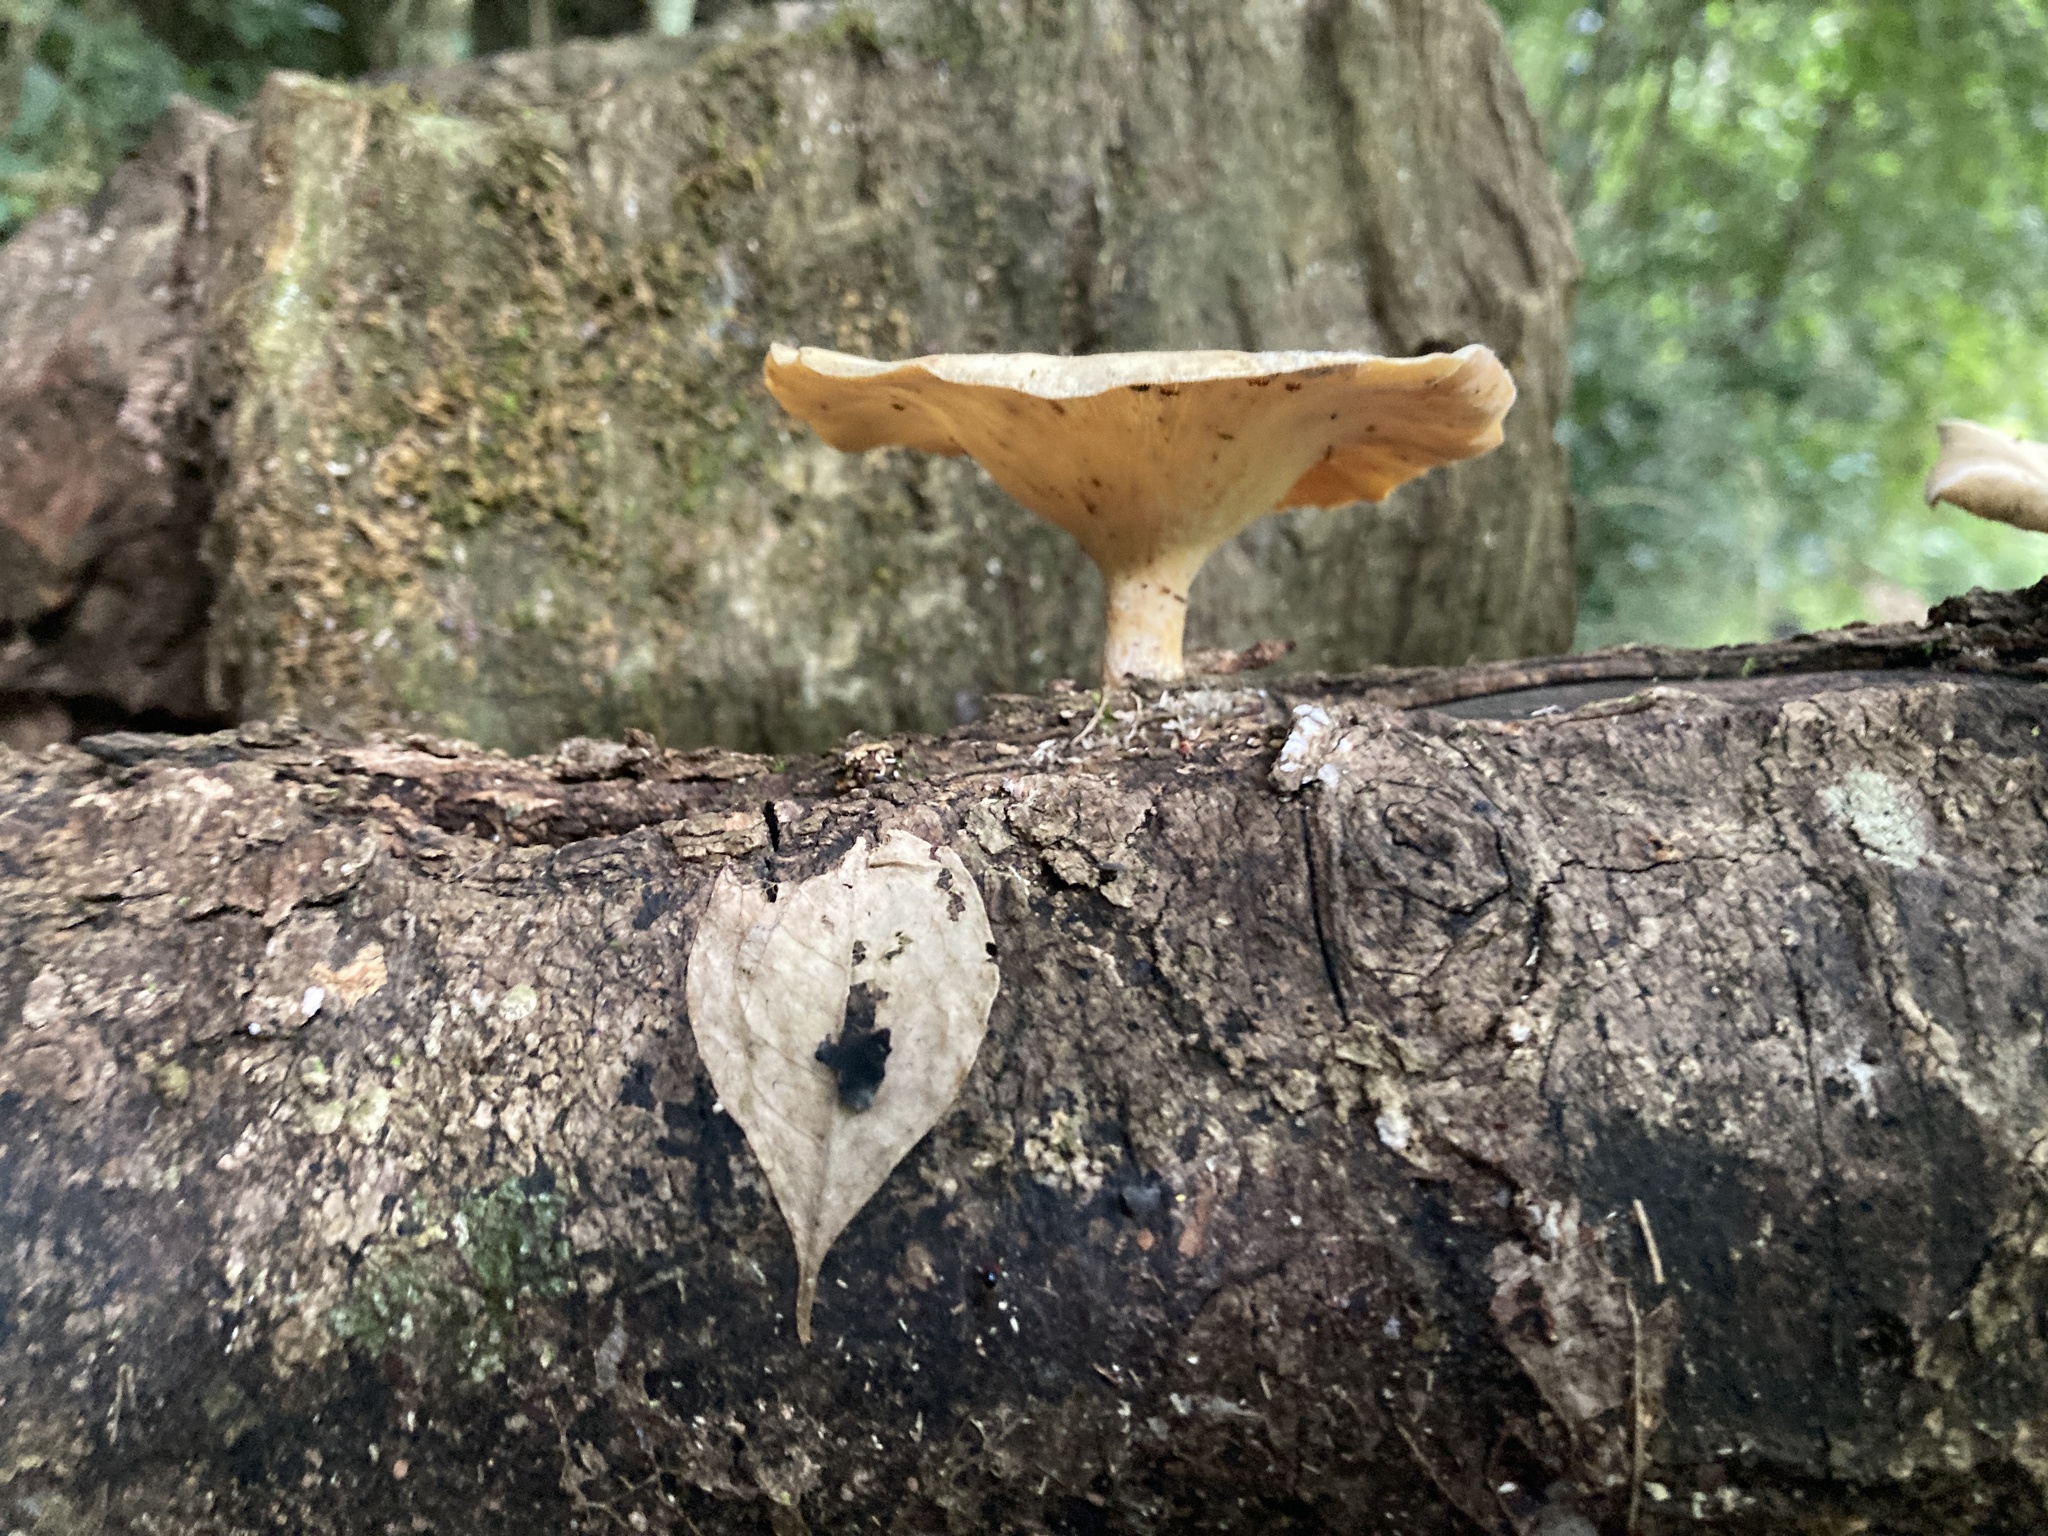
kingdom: Fungi
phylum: Basidiomycota
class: Agaricomycetes
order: Polyporales
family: Polyporaceae
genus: Lentinus
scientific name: Lentinus sajor-caju
